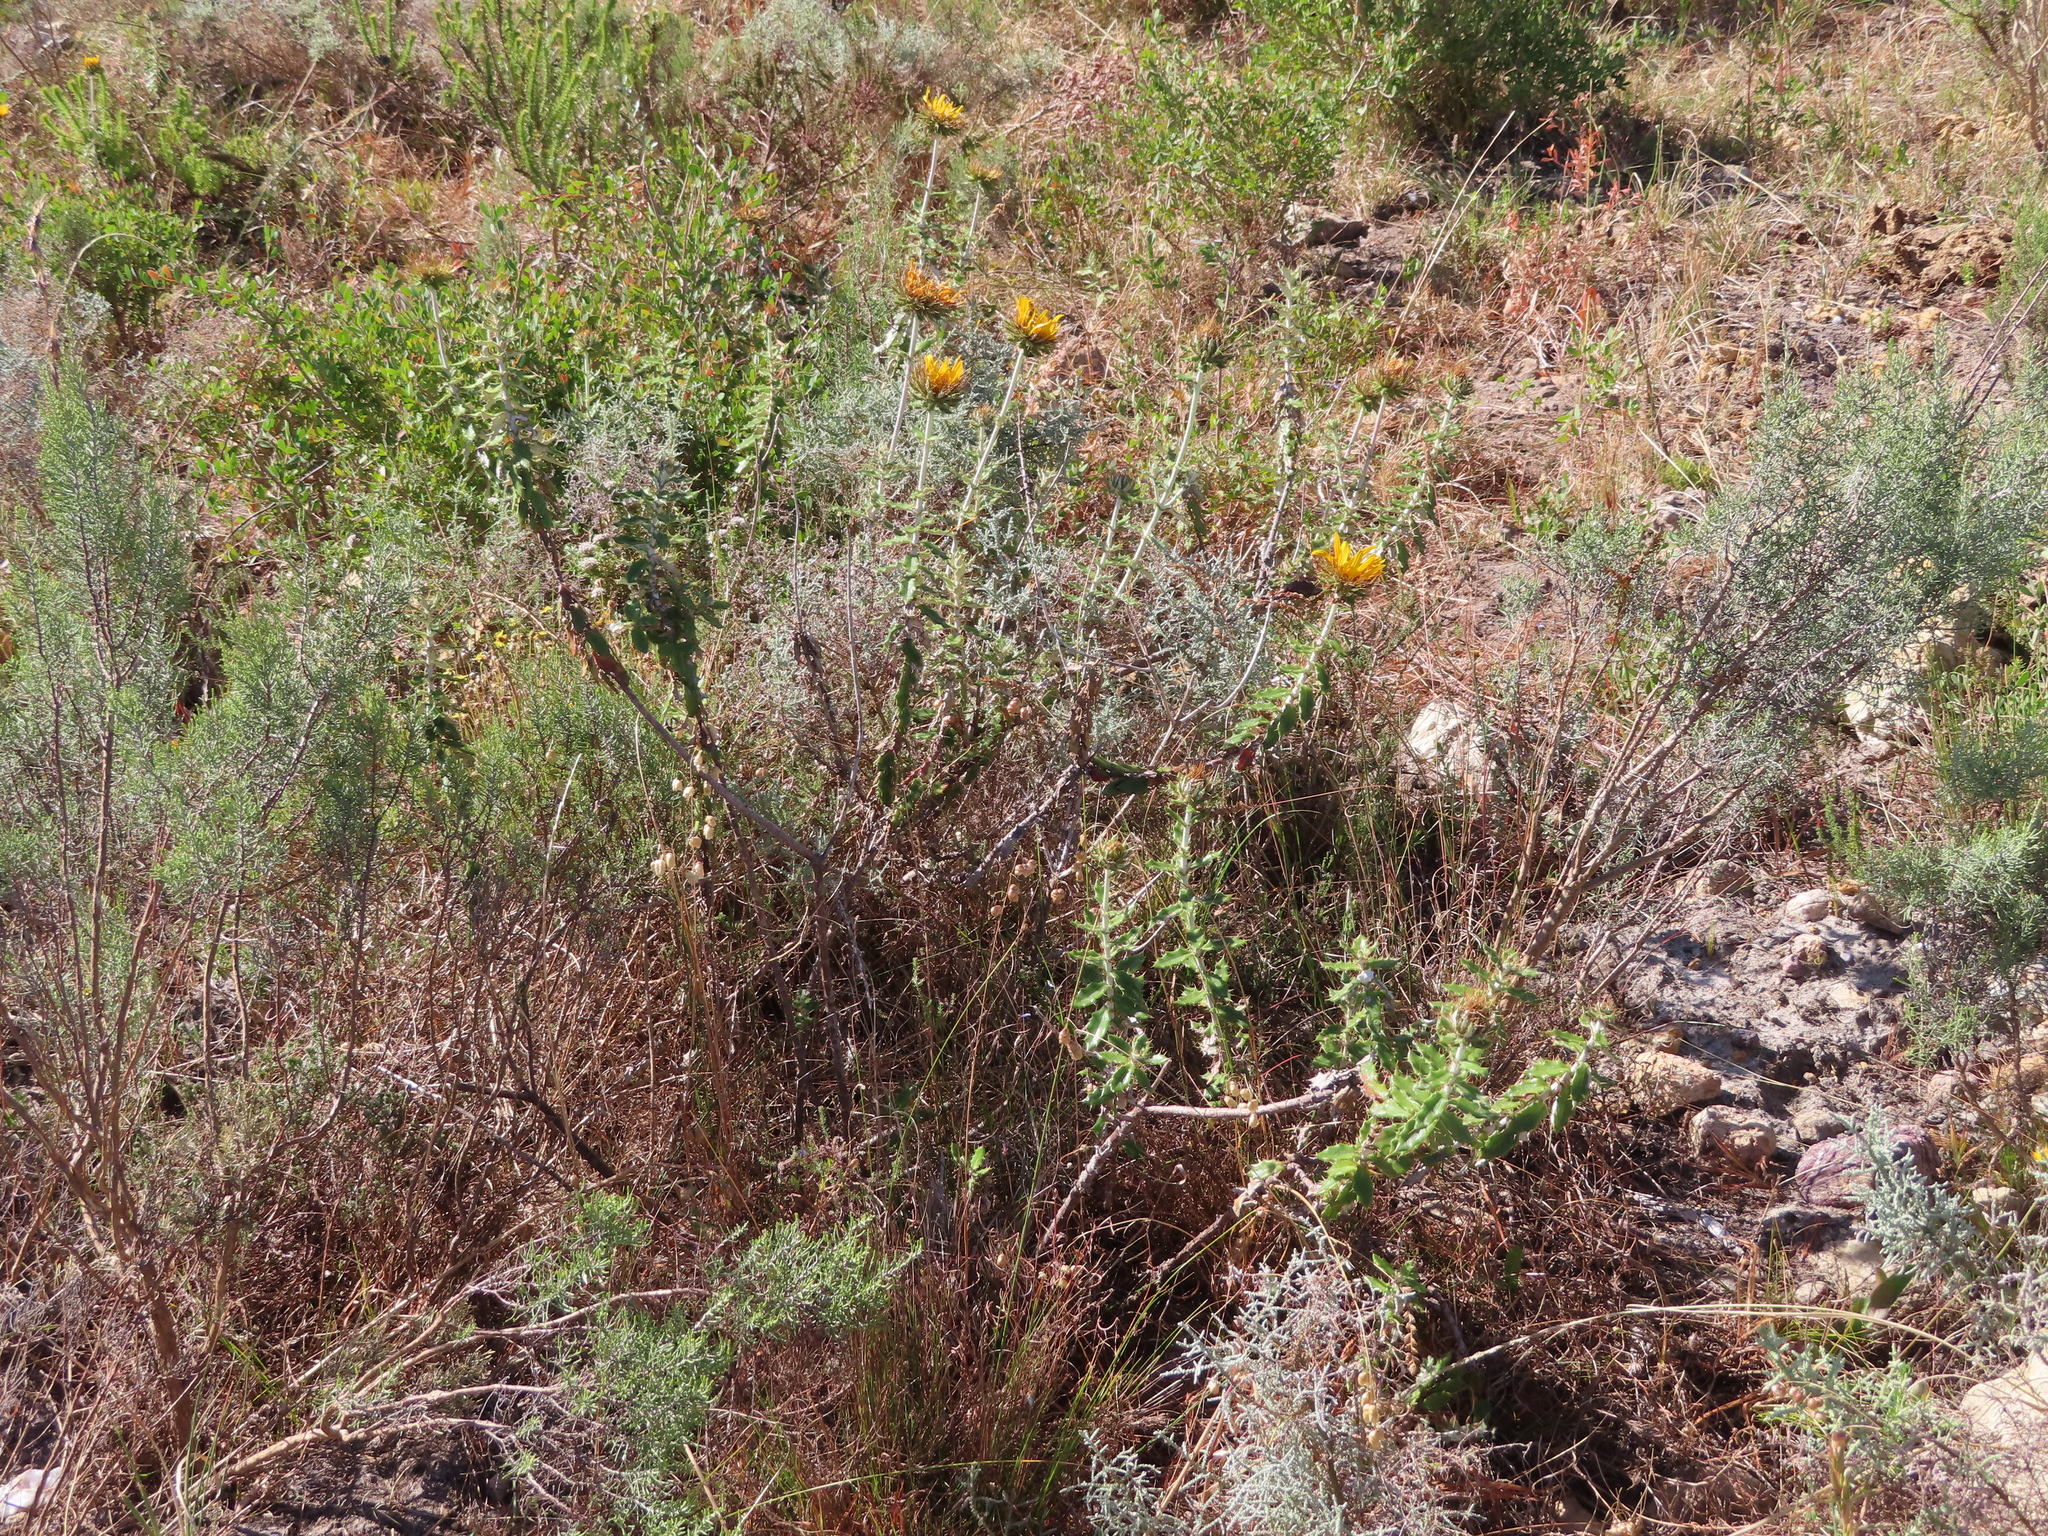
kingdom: Plantae
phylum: Tracheophyta
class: Magnoliopsida
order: Asterales
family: Asteraceae
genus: Berkheya
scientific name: Berkheya barbata
